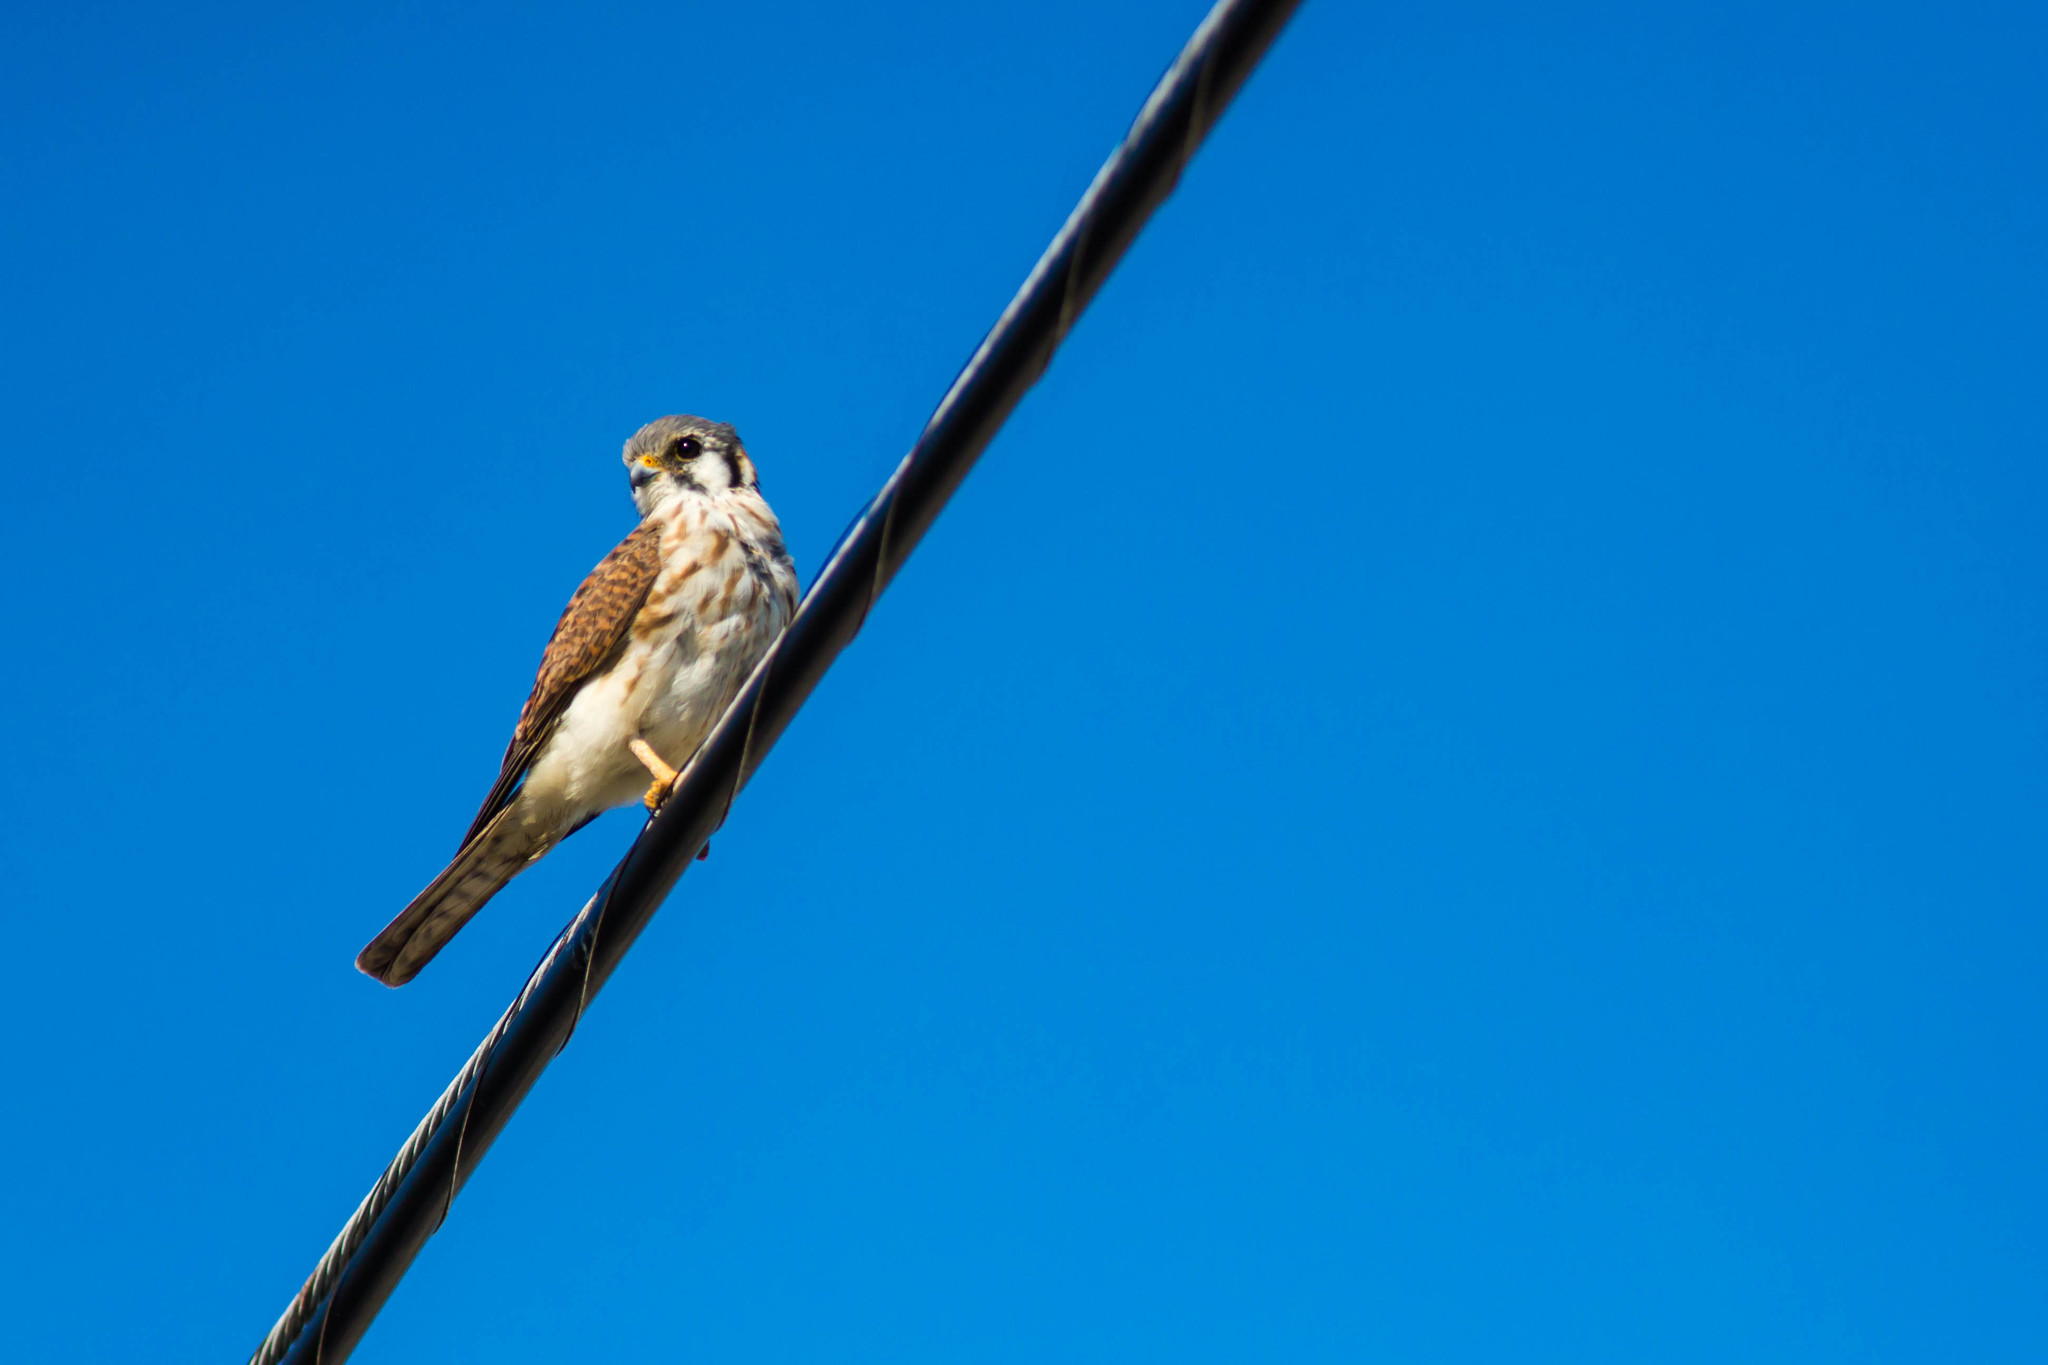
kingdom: Animalia
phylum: Chordata
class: Aves
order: Falconiformes
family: Falconidae
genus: Falco
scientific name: Falco sparverius
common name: American kestrel
